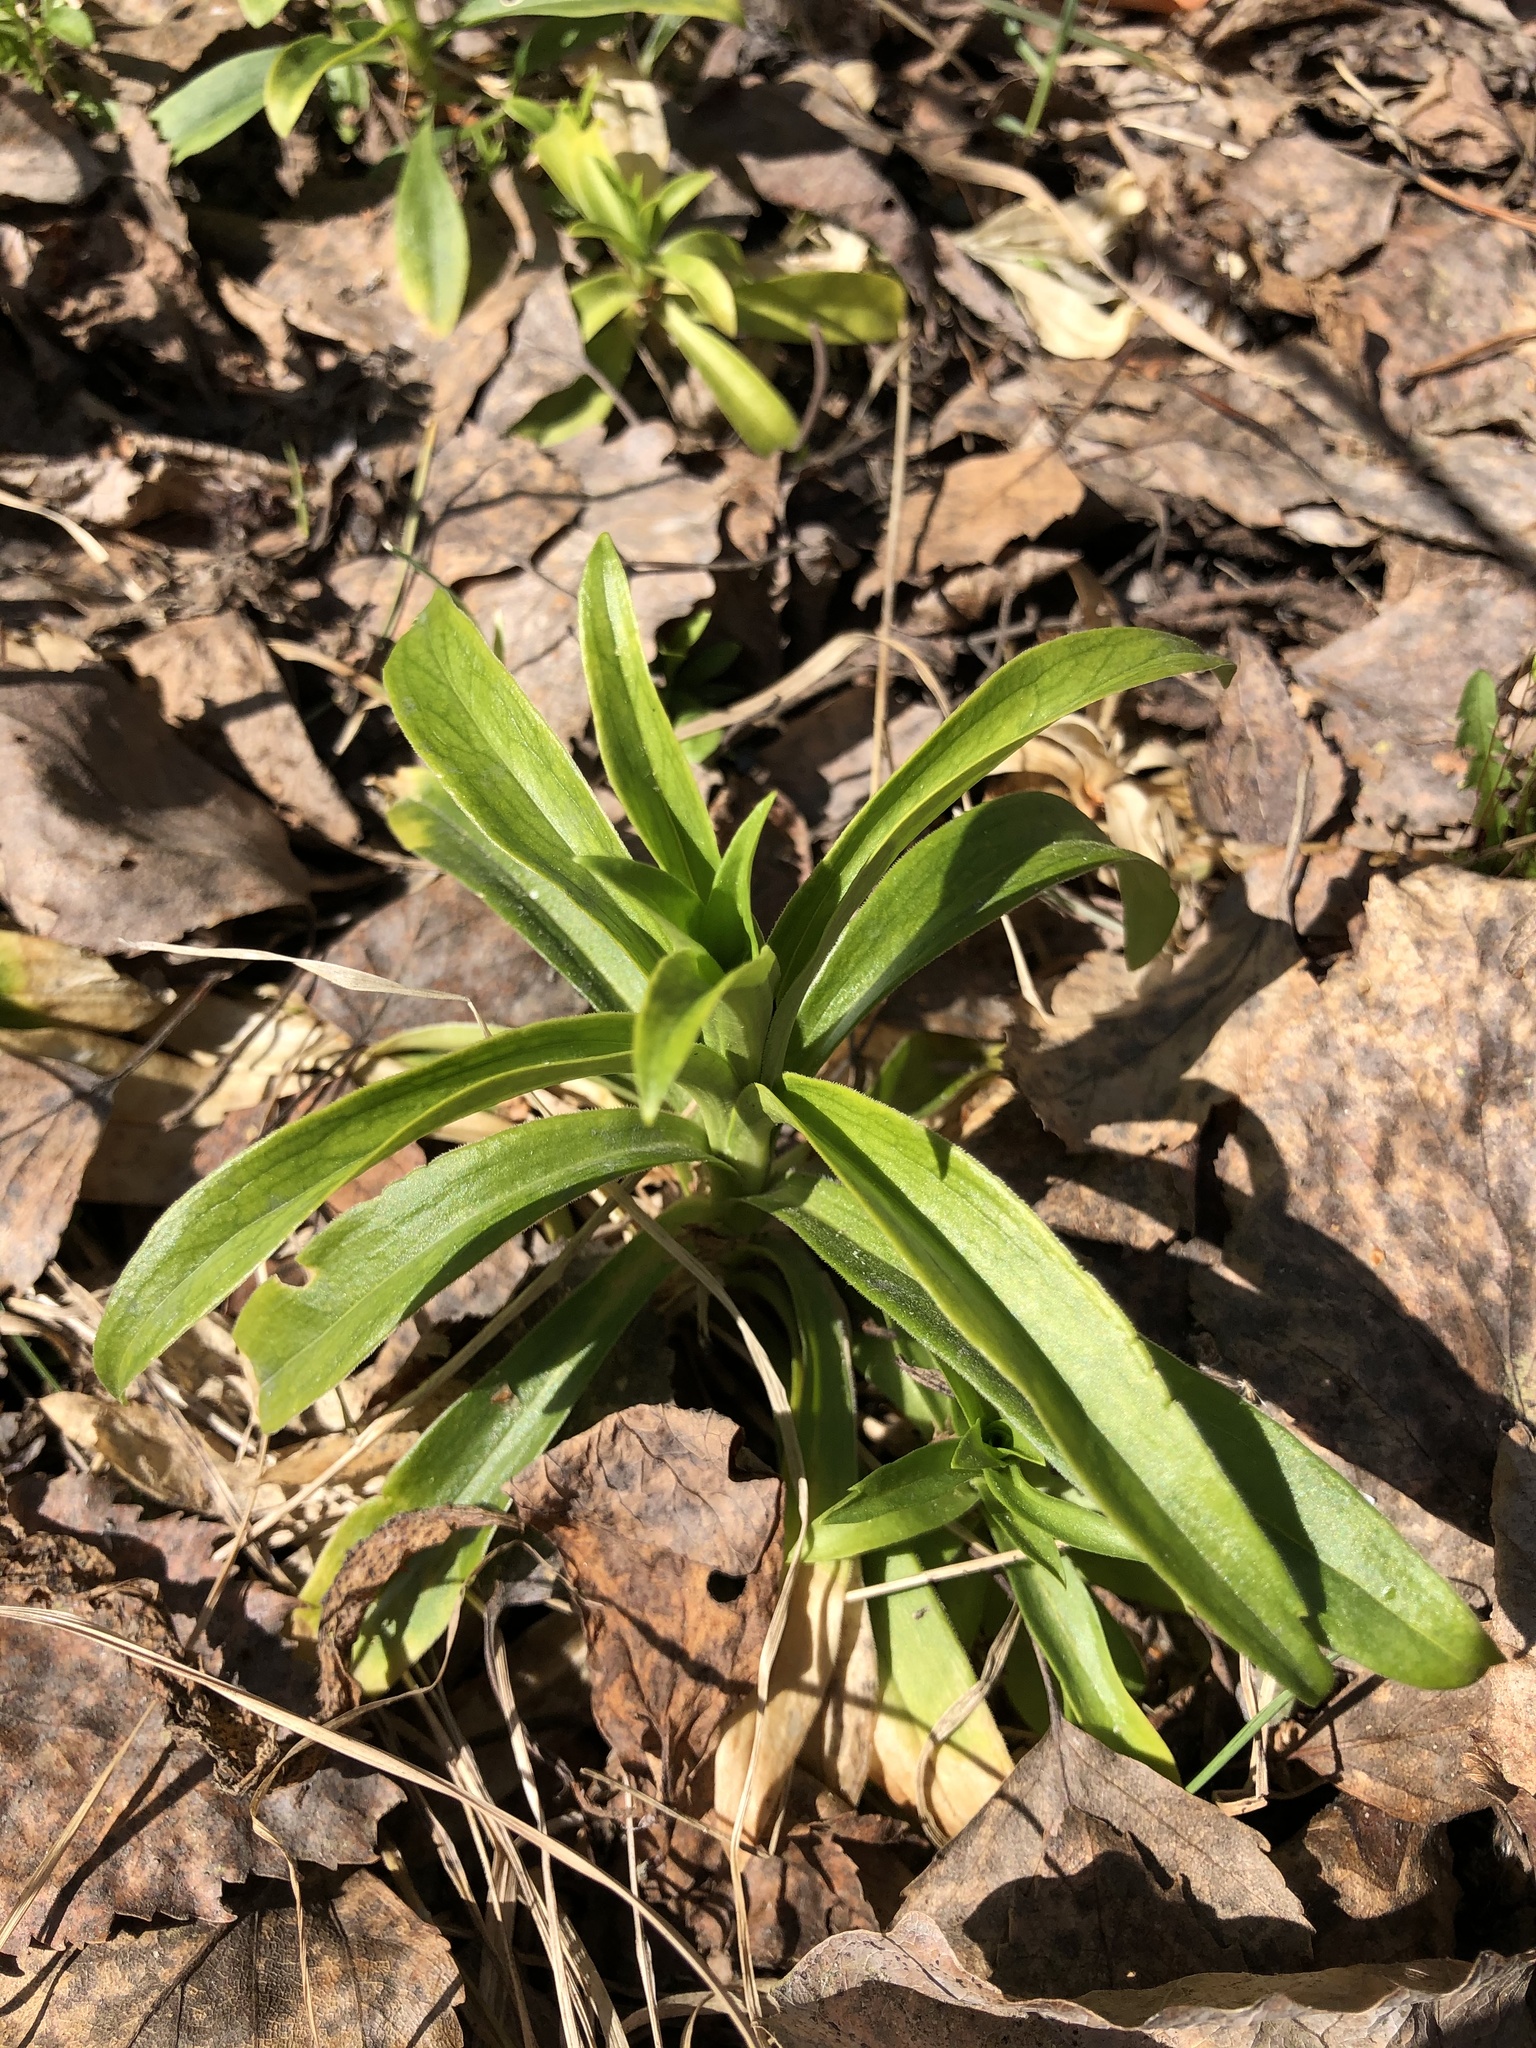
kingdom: Plantae
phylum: Tracheophyta
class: Magnoliopsida
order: Caryophyllales
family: Caryophyllaceae
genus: Saponaria
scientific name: Saponaria officinalis
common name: Soapwort
